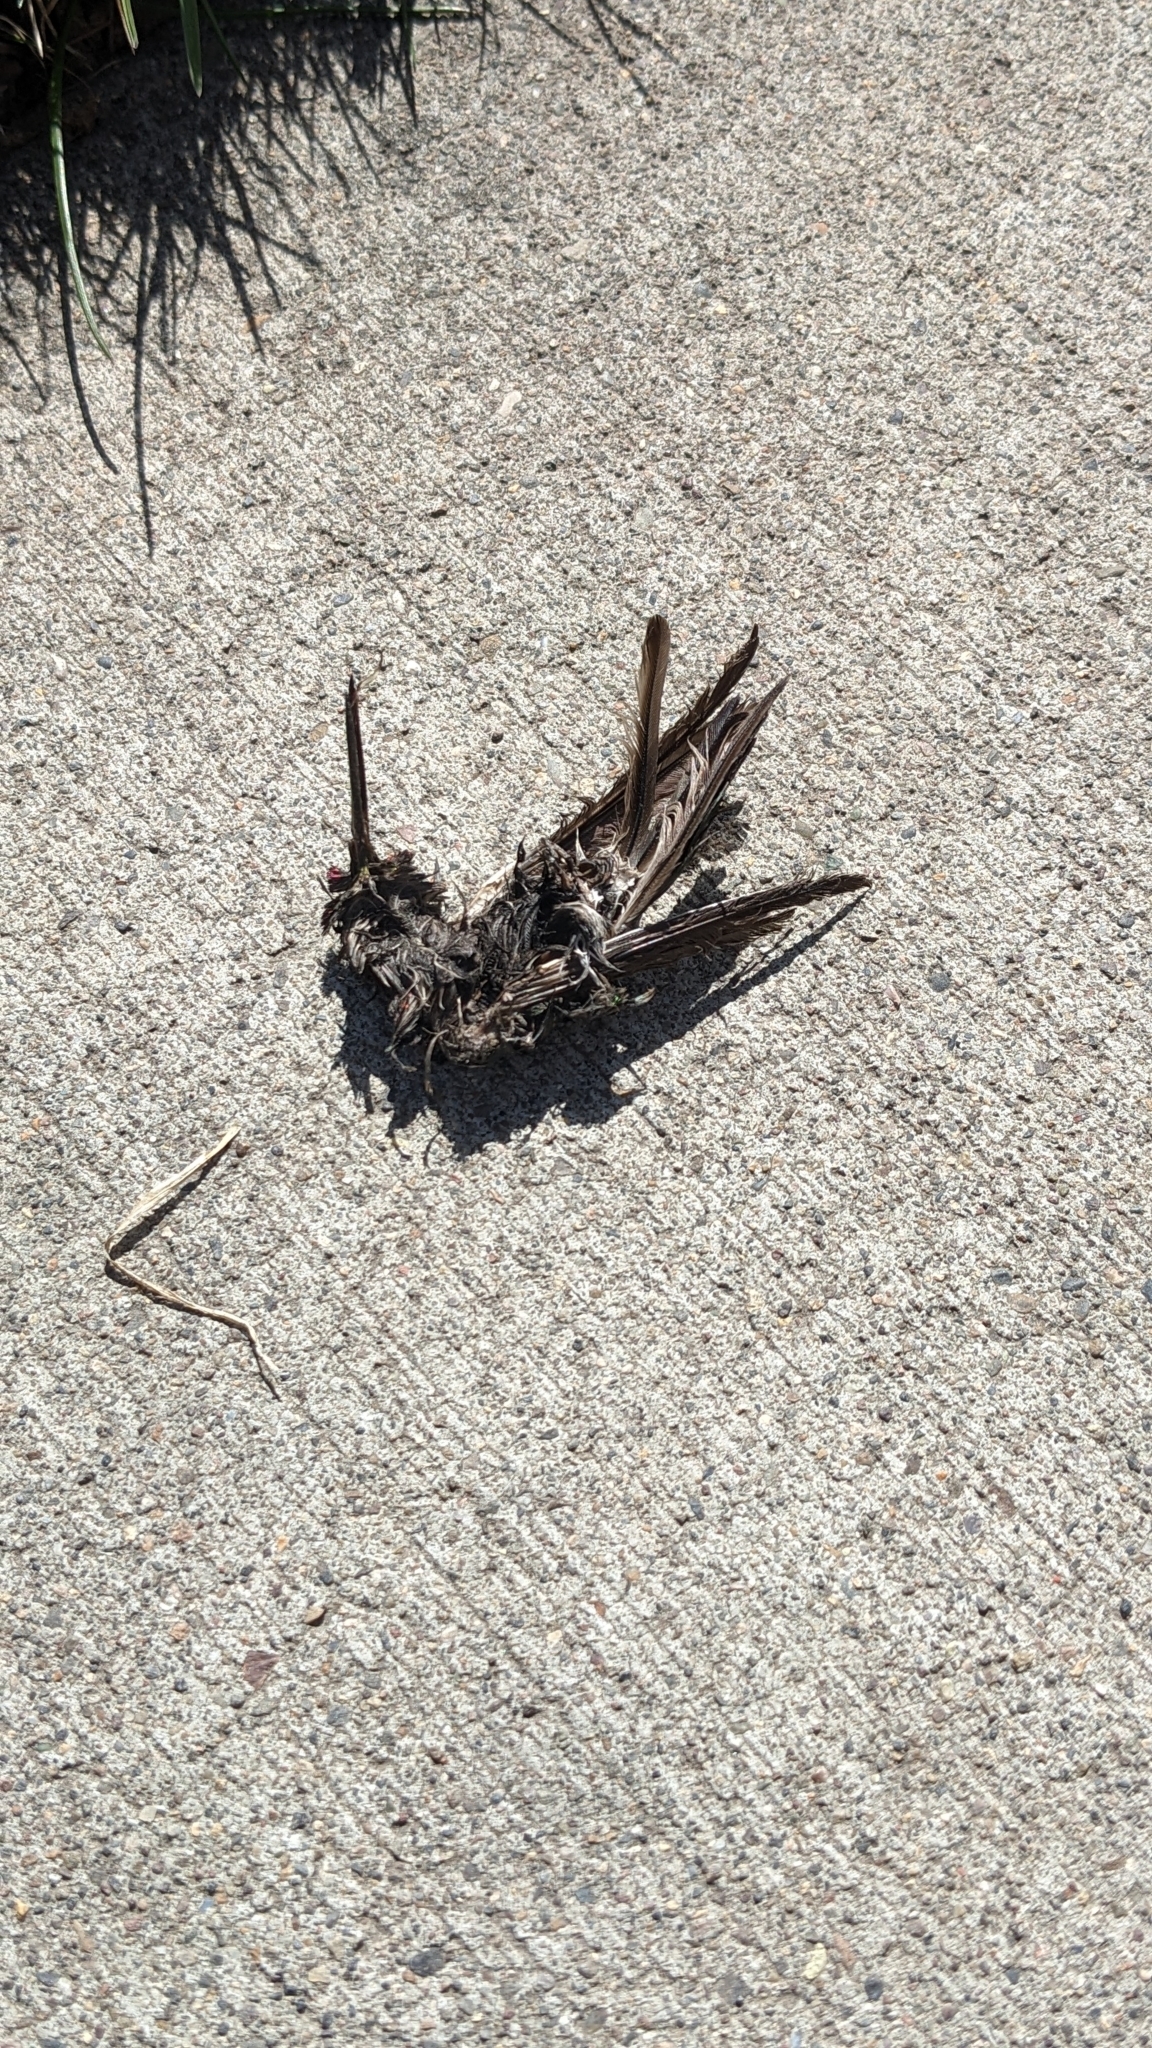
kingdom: Animalia
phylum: Chordata
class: Aves
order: Apodiformes
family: Trochilidae
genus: Calypte
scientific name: Calypte anna
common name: Anna's hummingbird
